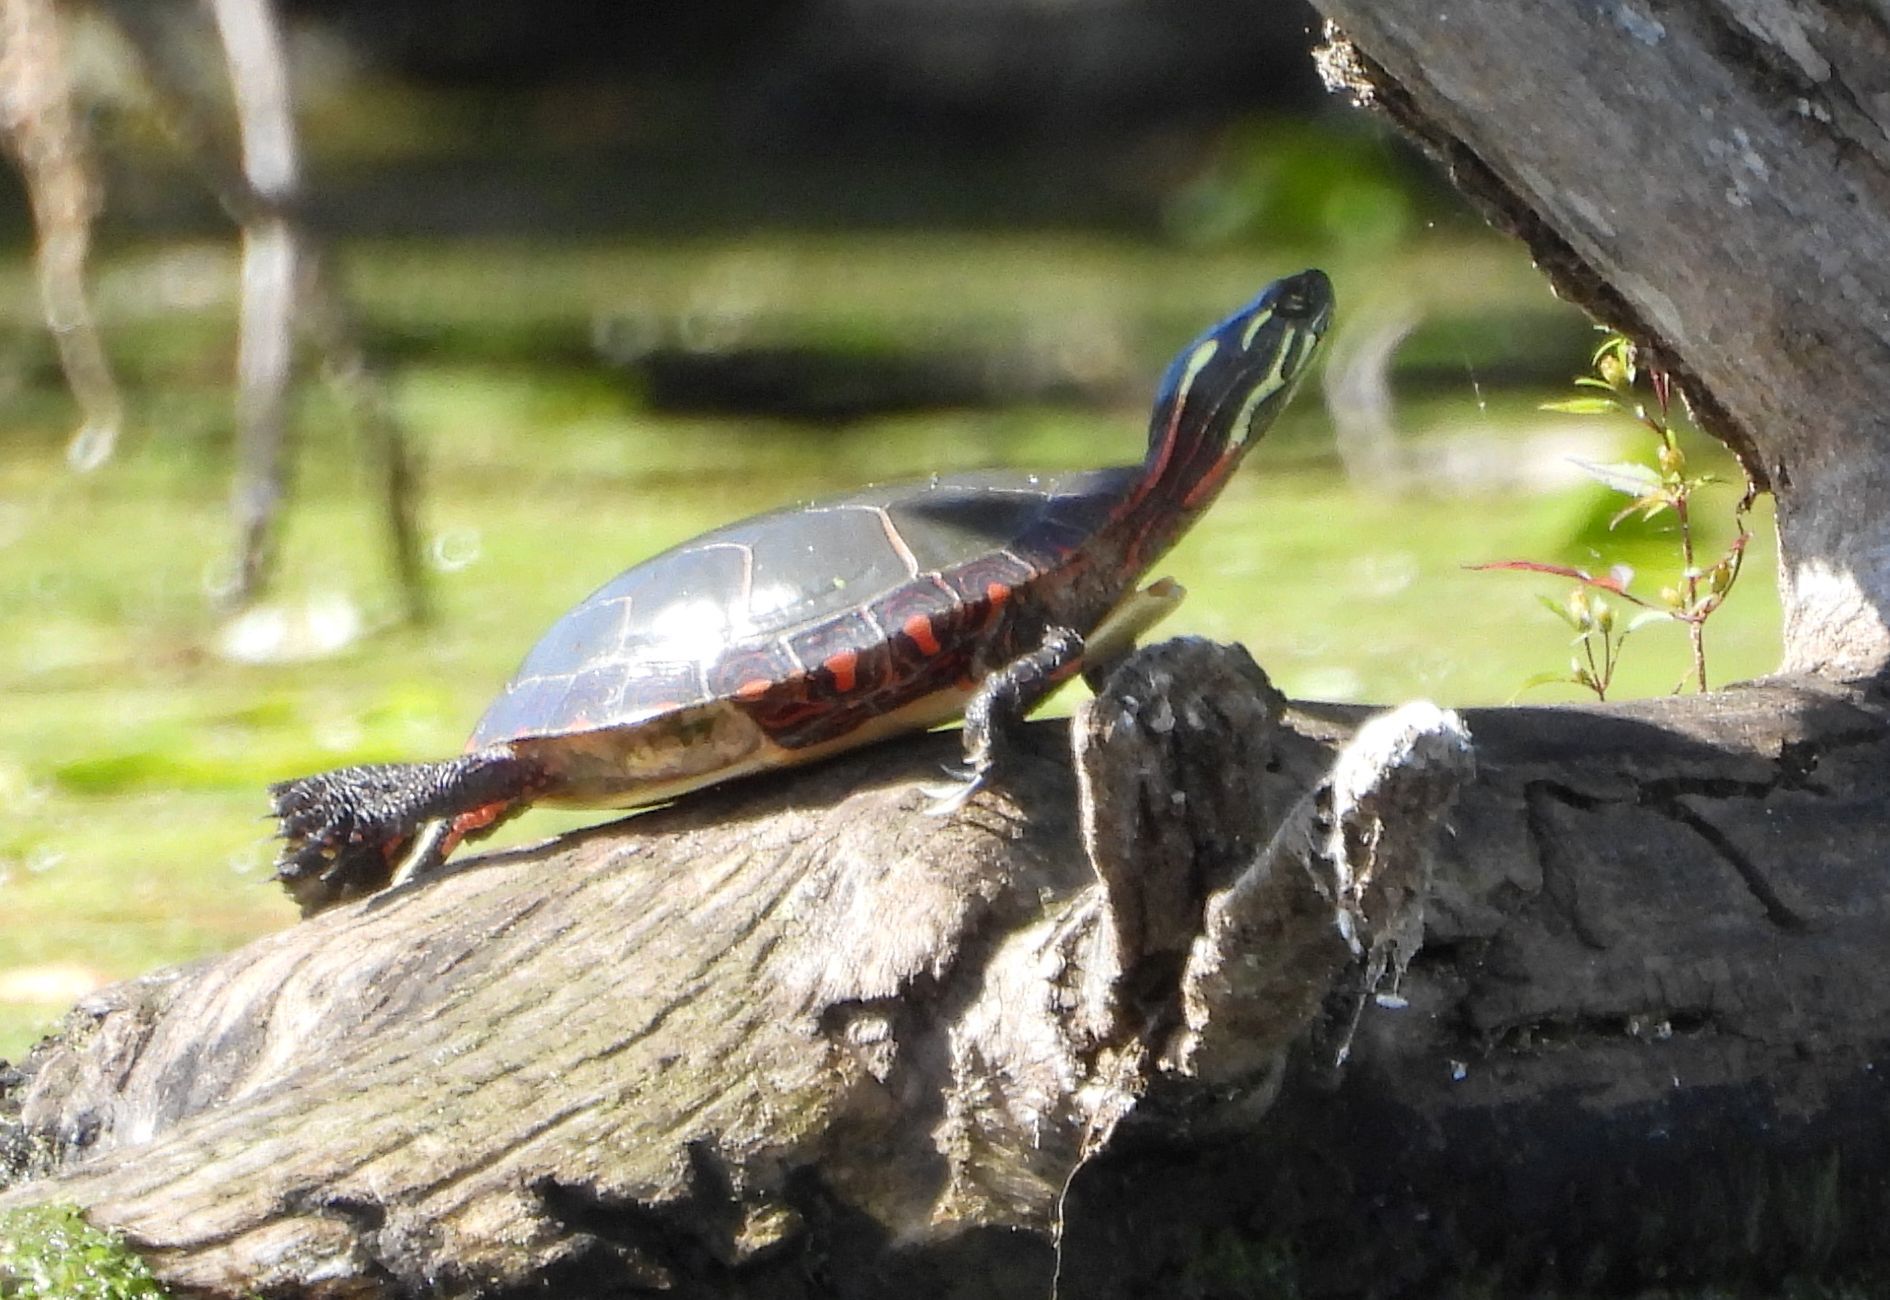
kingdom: Animalia
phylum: Chordata
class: Testudines
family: Emydidae
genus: Chrysemys
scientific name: Chrysemys picta
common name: Painted turtle
